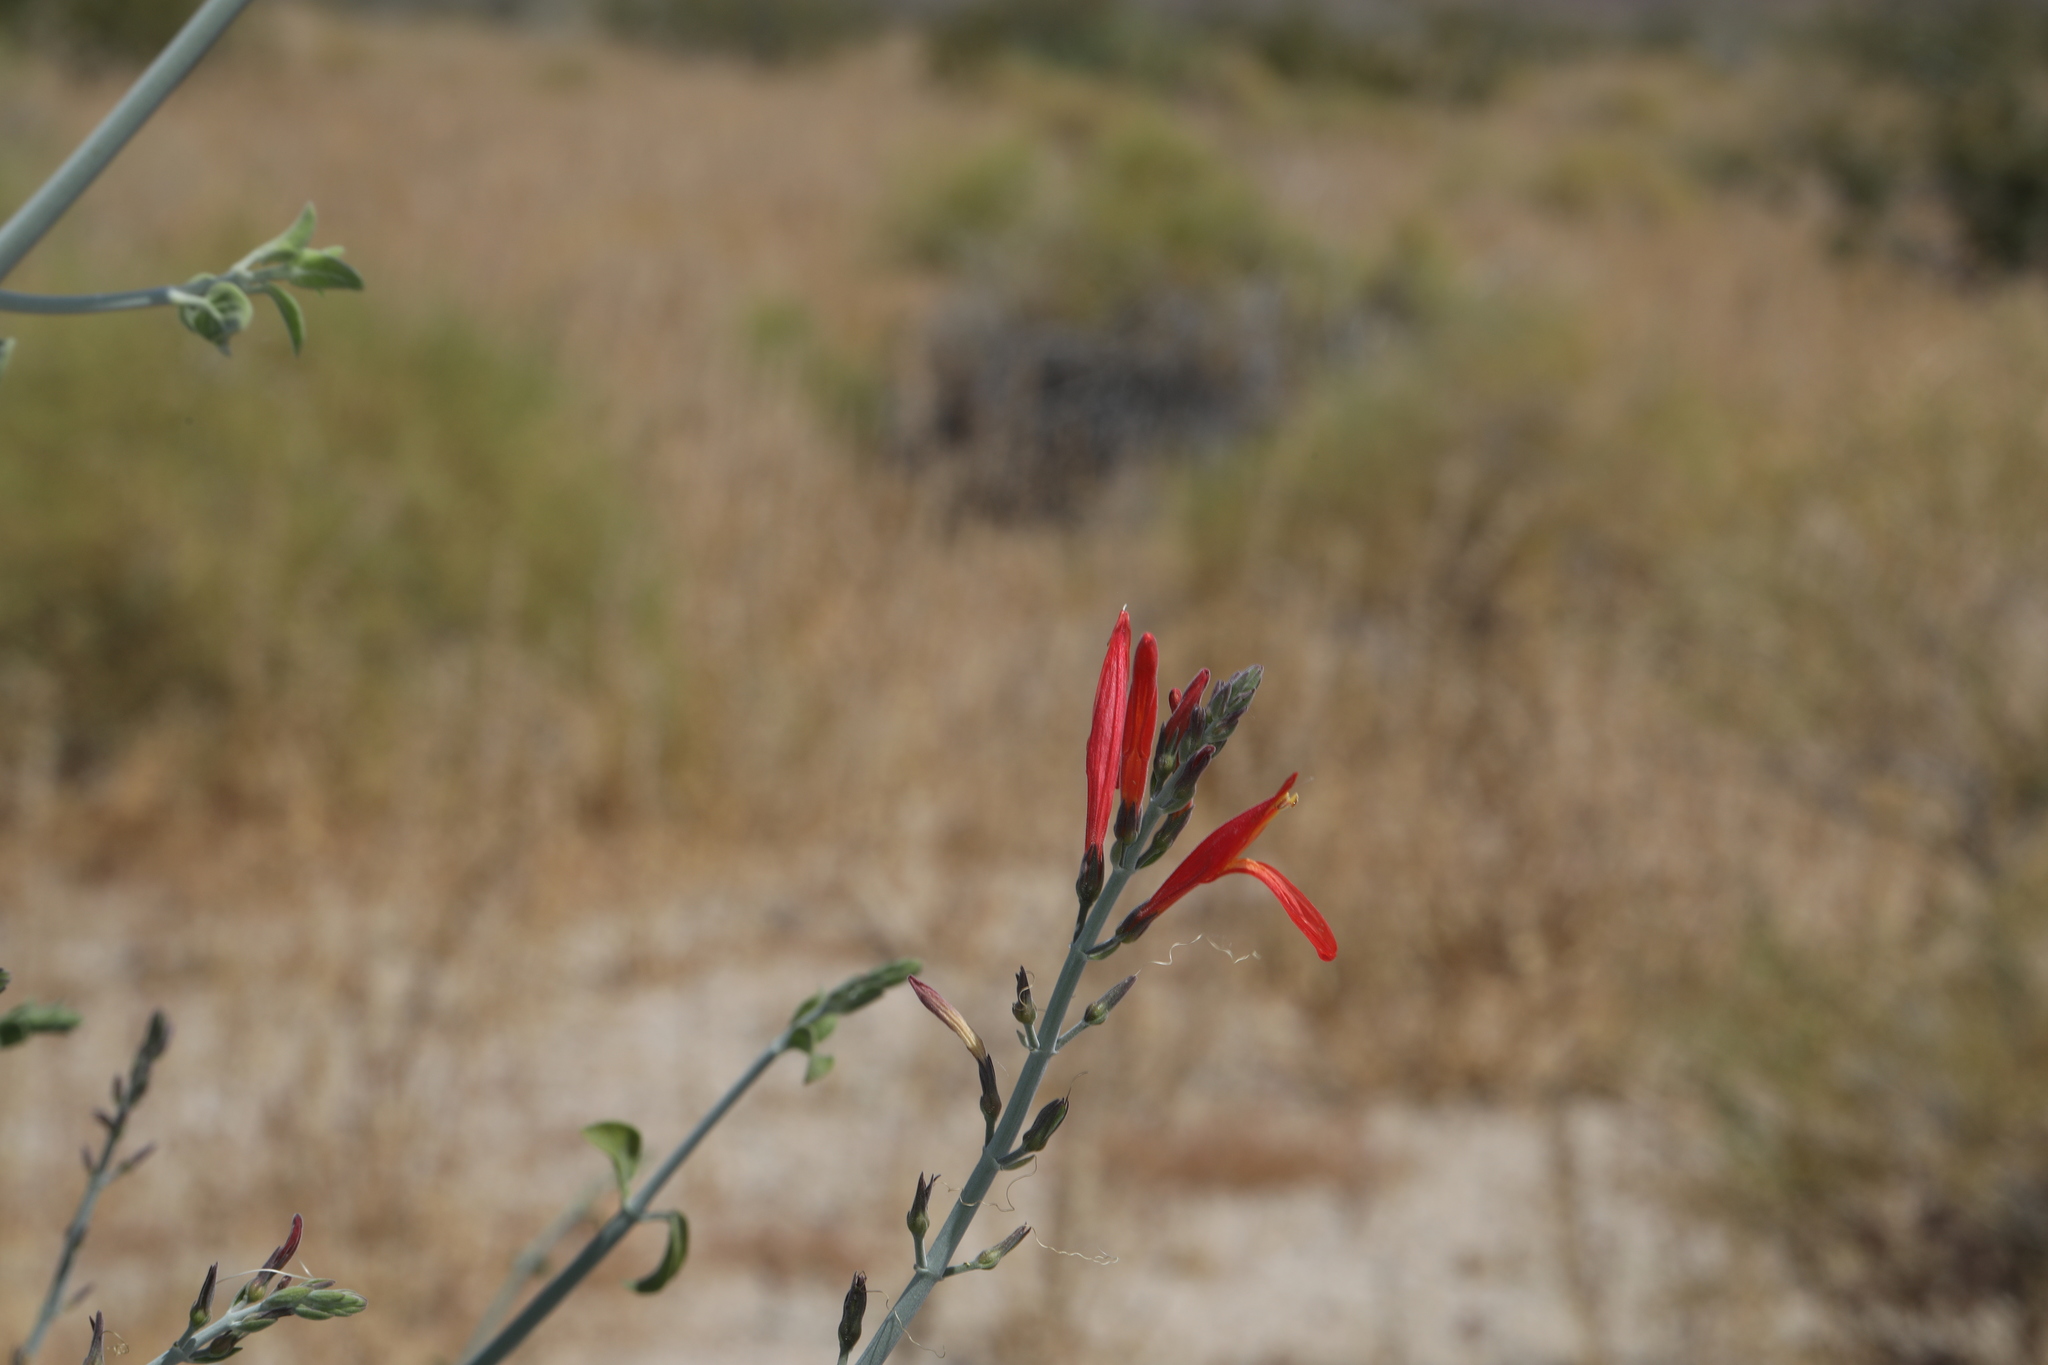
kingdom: Plantae
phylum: Tracheophyta
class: Magnoliopsida
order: Lamiales
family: Acanthaceae
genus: Justicia
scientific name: Justicia californica
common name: Chuparosa-honeysuckle
